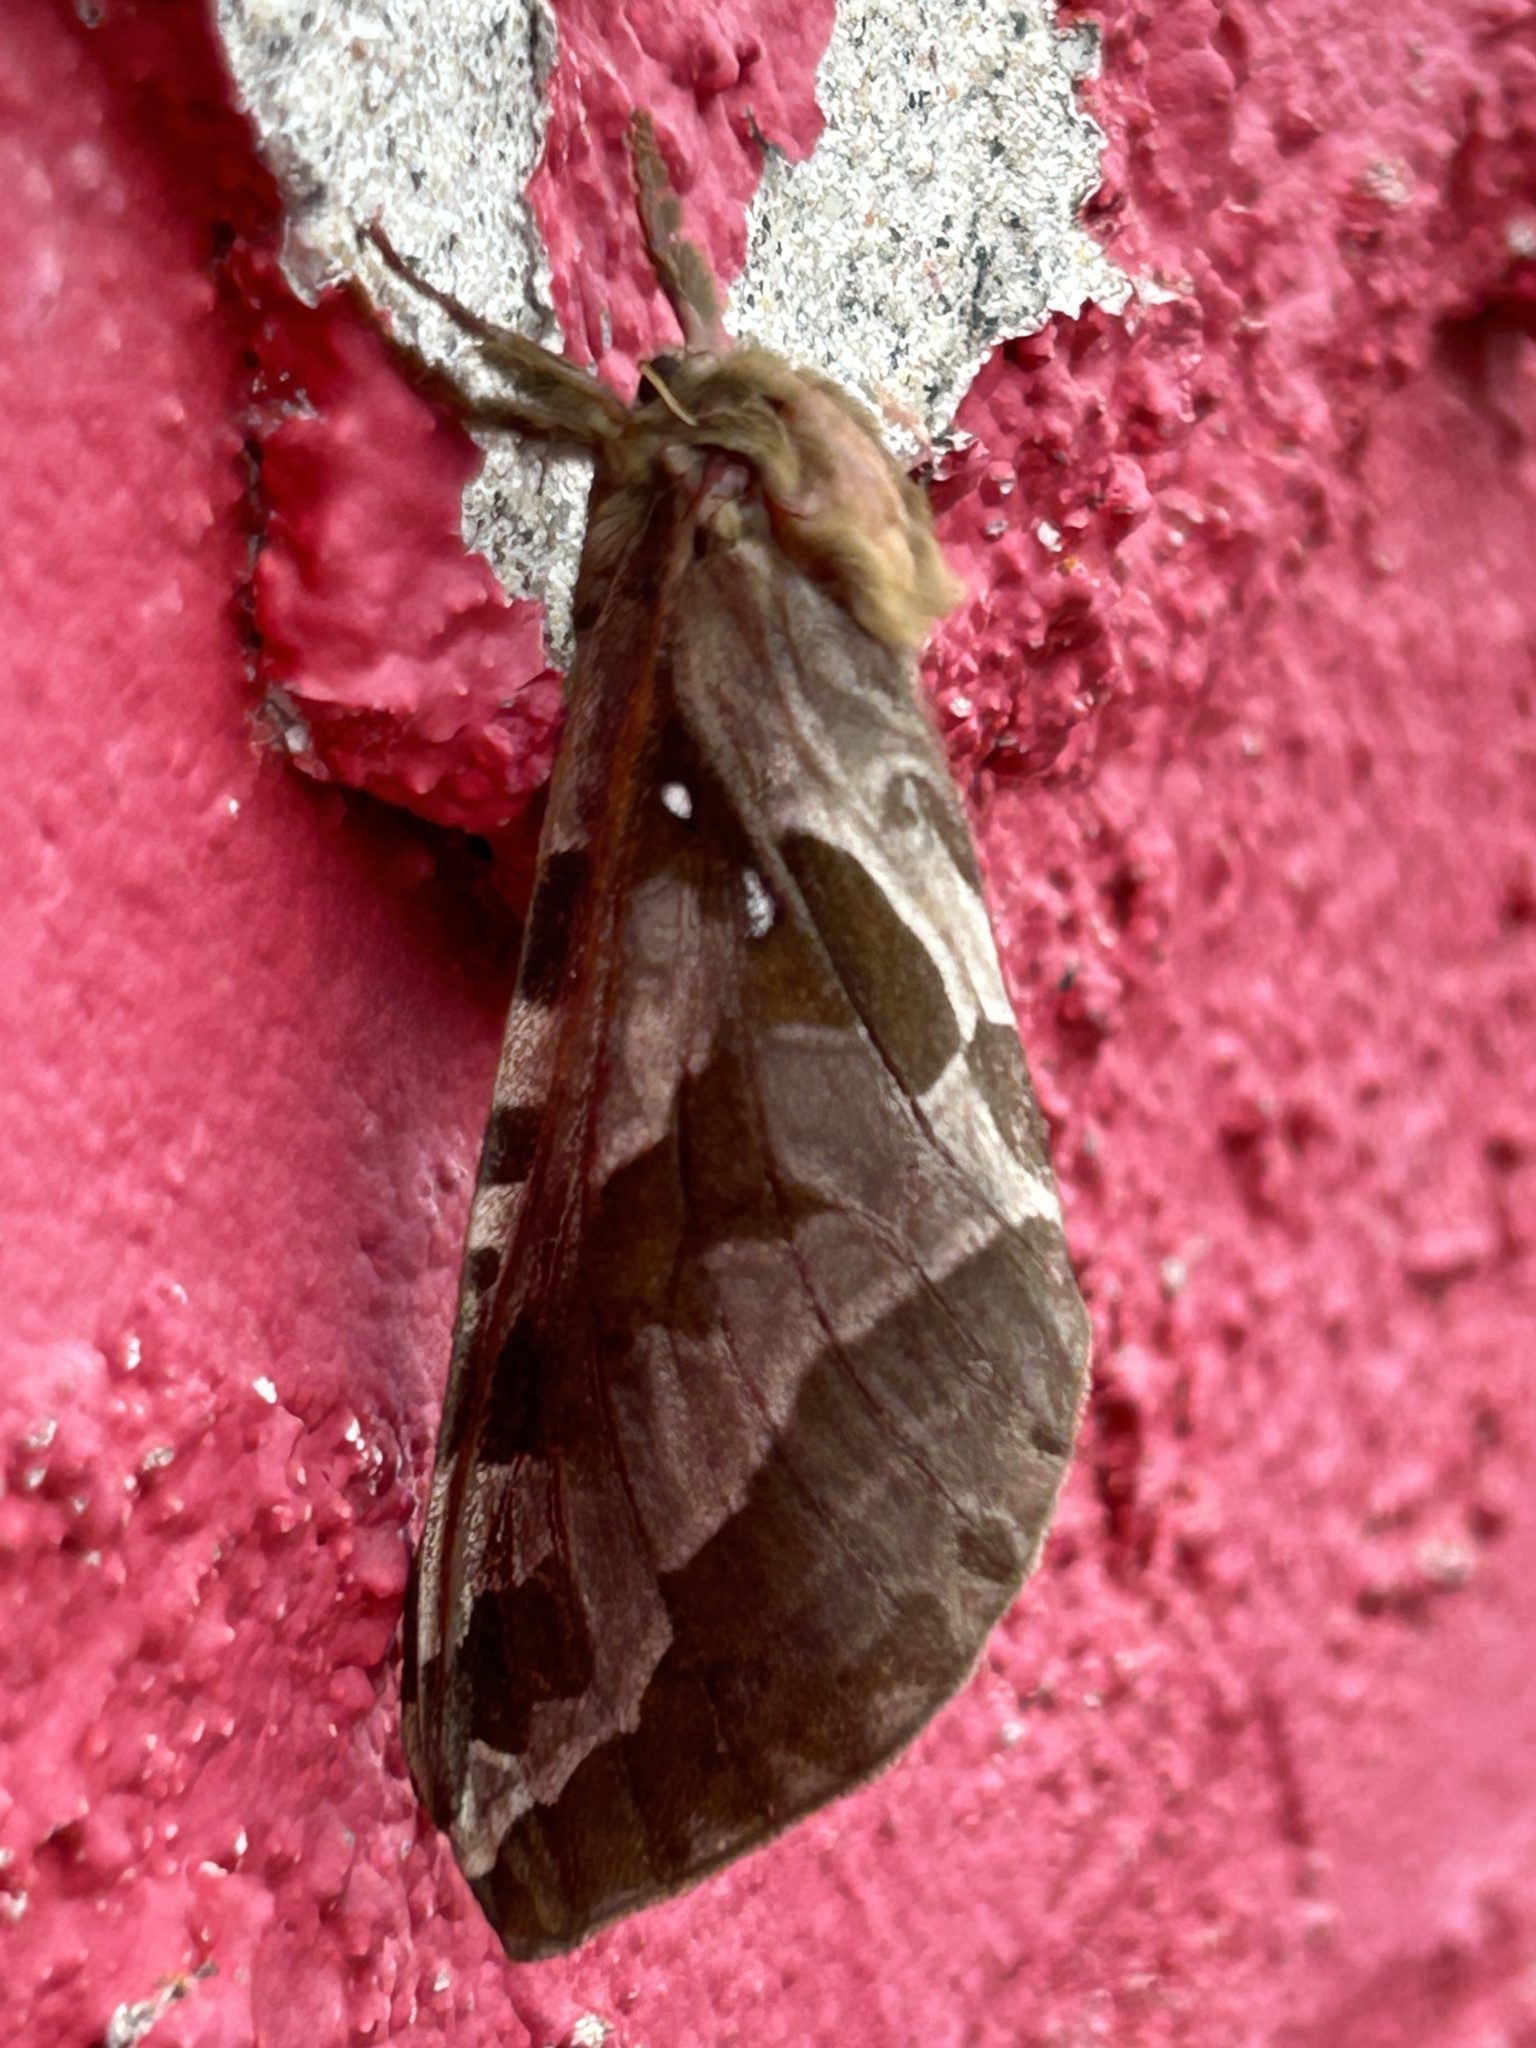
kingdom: Animalia
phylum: Arthropoda
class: Insecta
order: Lepidoptera
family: Hepialidae
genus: Sthenopis
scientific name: Sthenopis purpurascens
